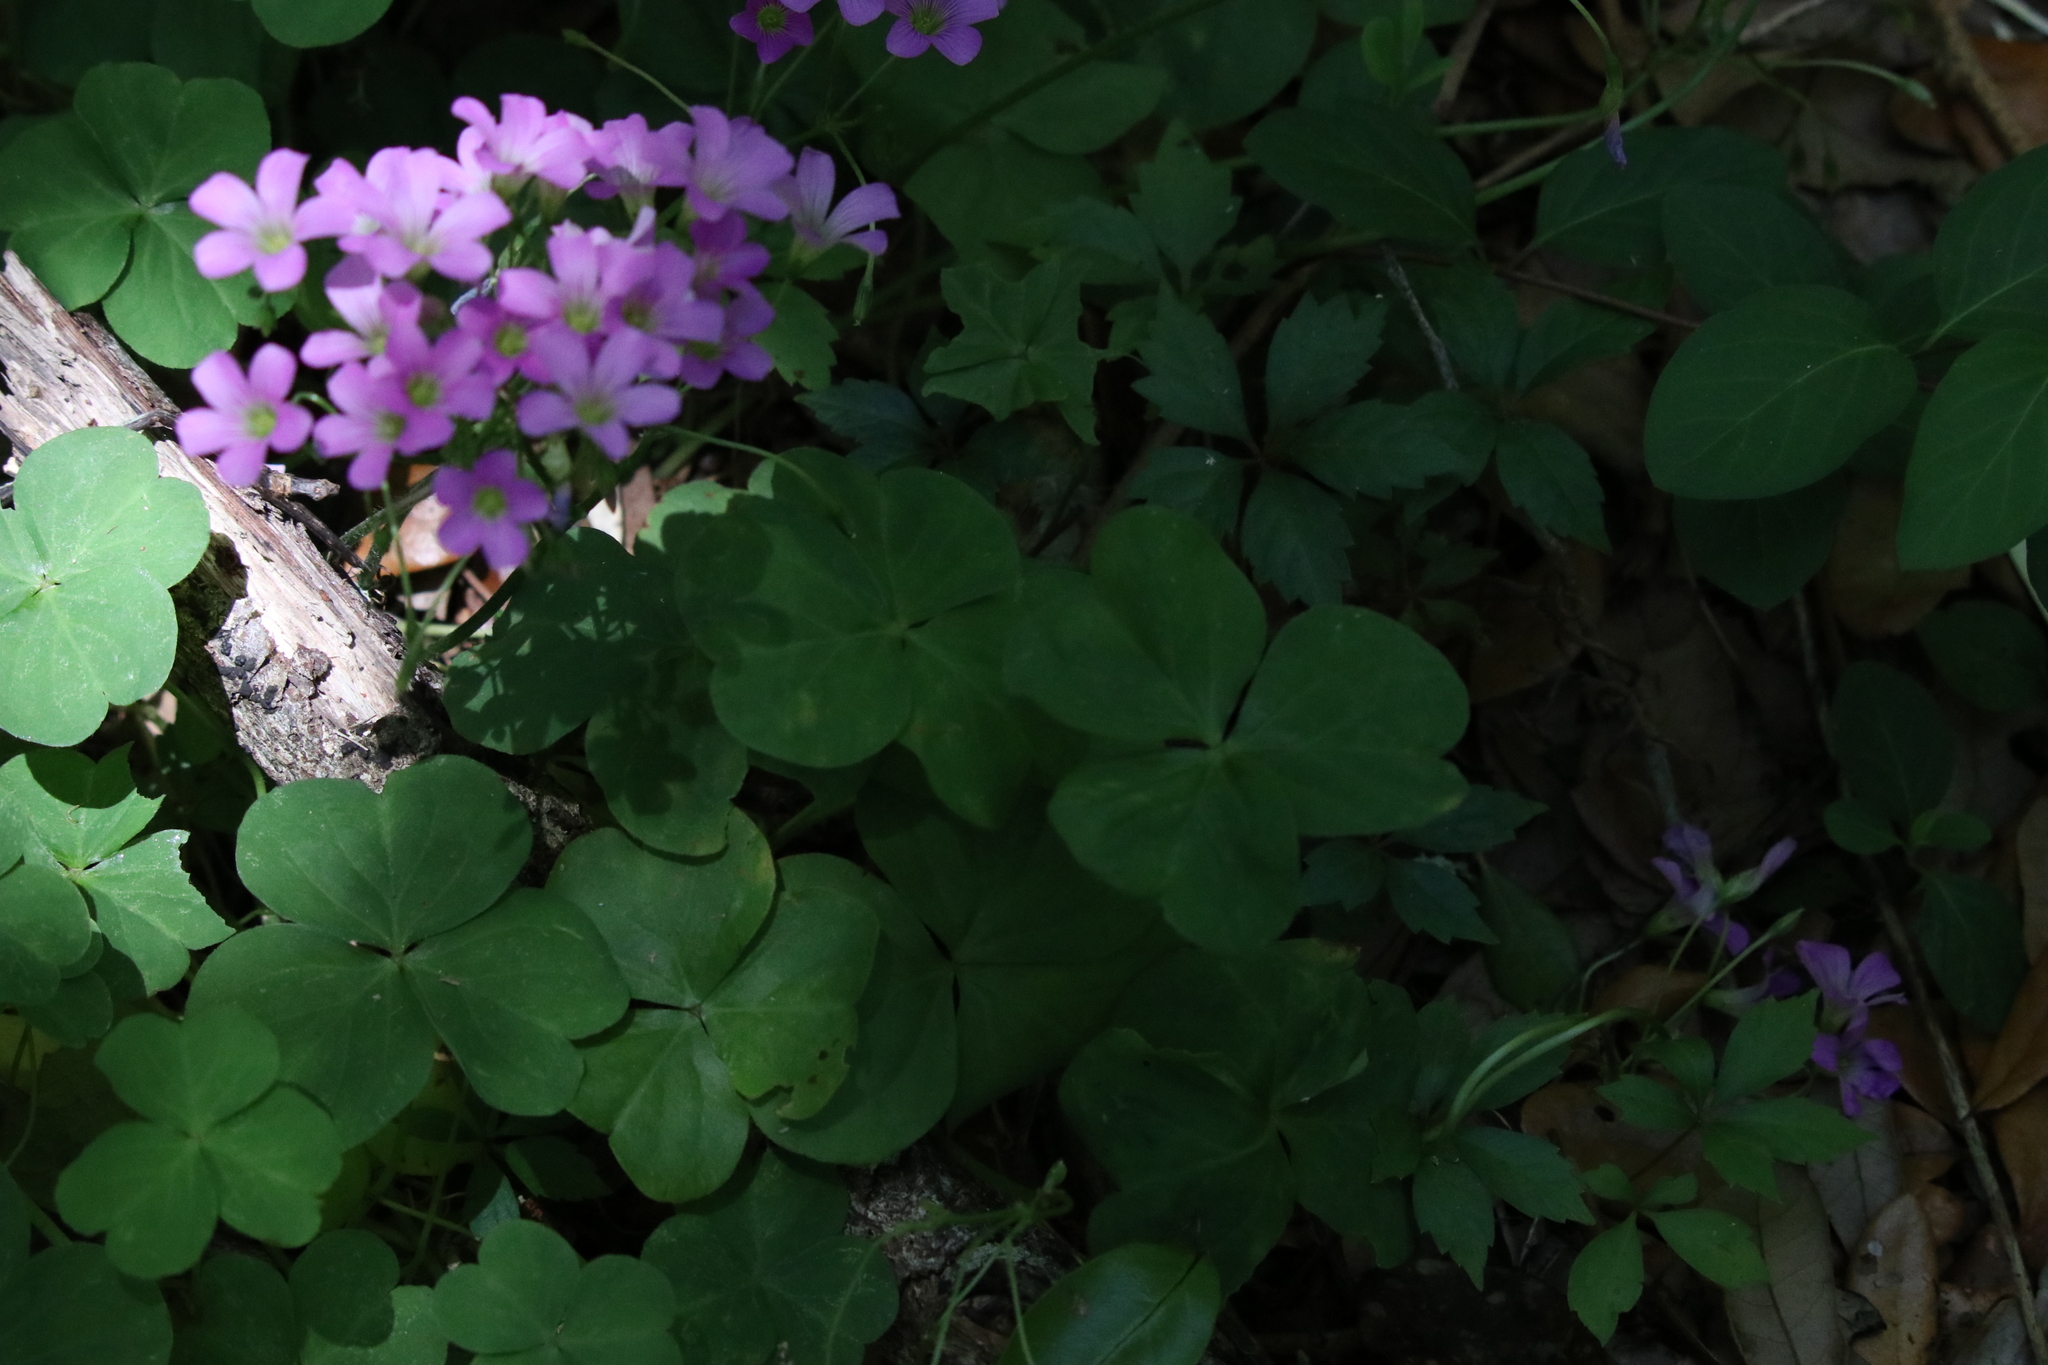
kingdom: Plantae
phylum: Tracheophyta
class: Magnoliopsida
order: Oxalidales
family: Oxalidaceae
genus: Oxalis
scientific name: Oxalis debilis
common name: Large-flowered pink-sorrel
